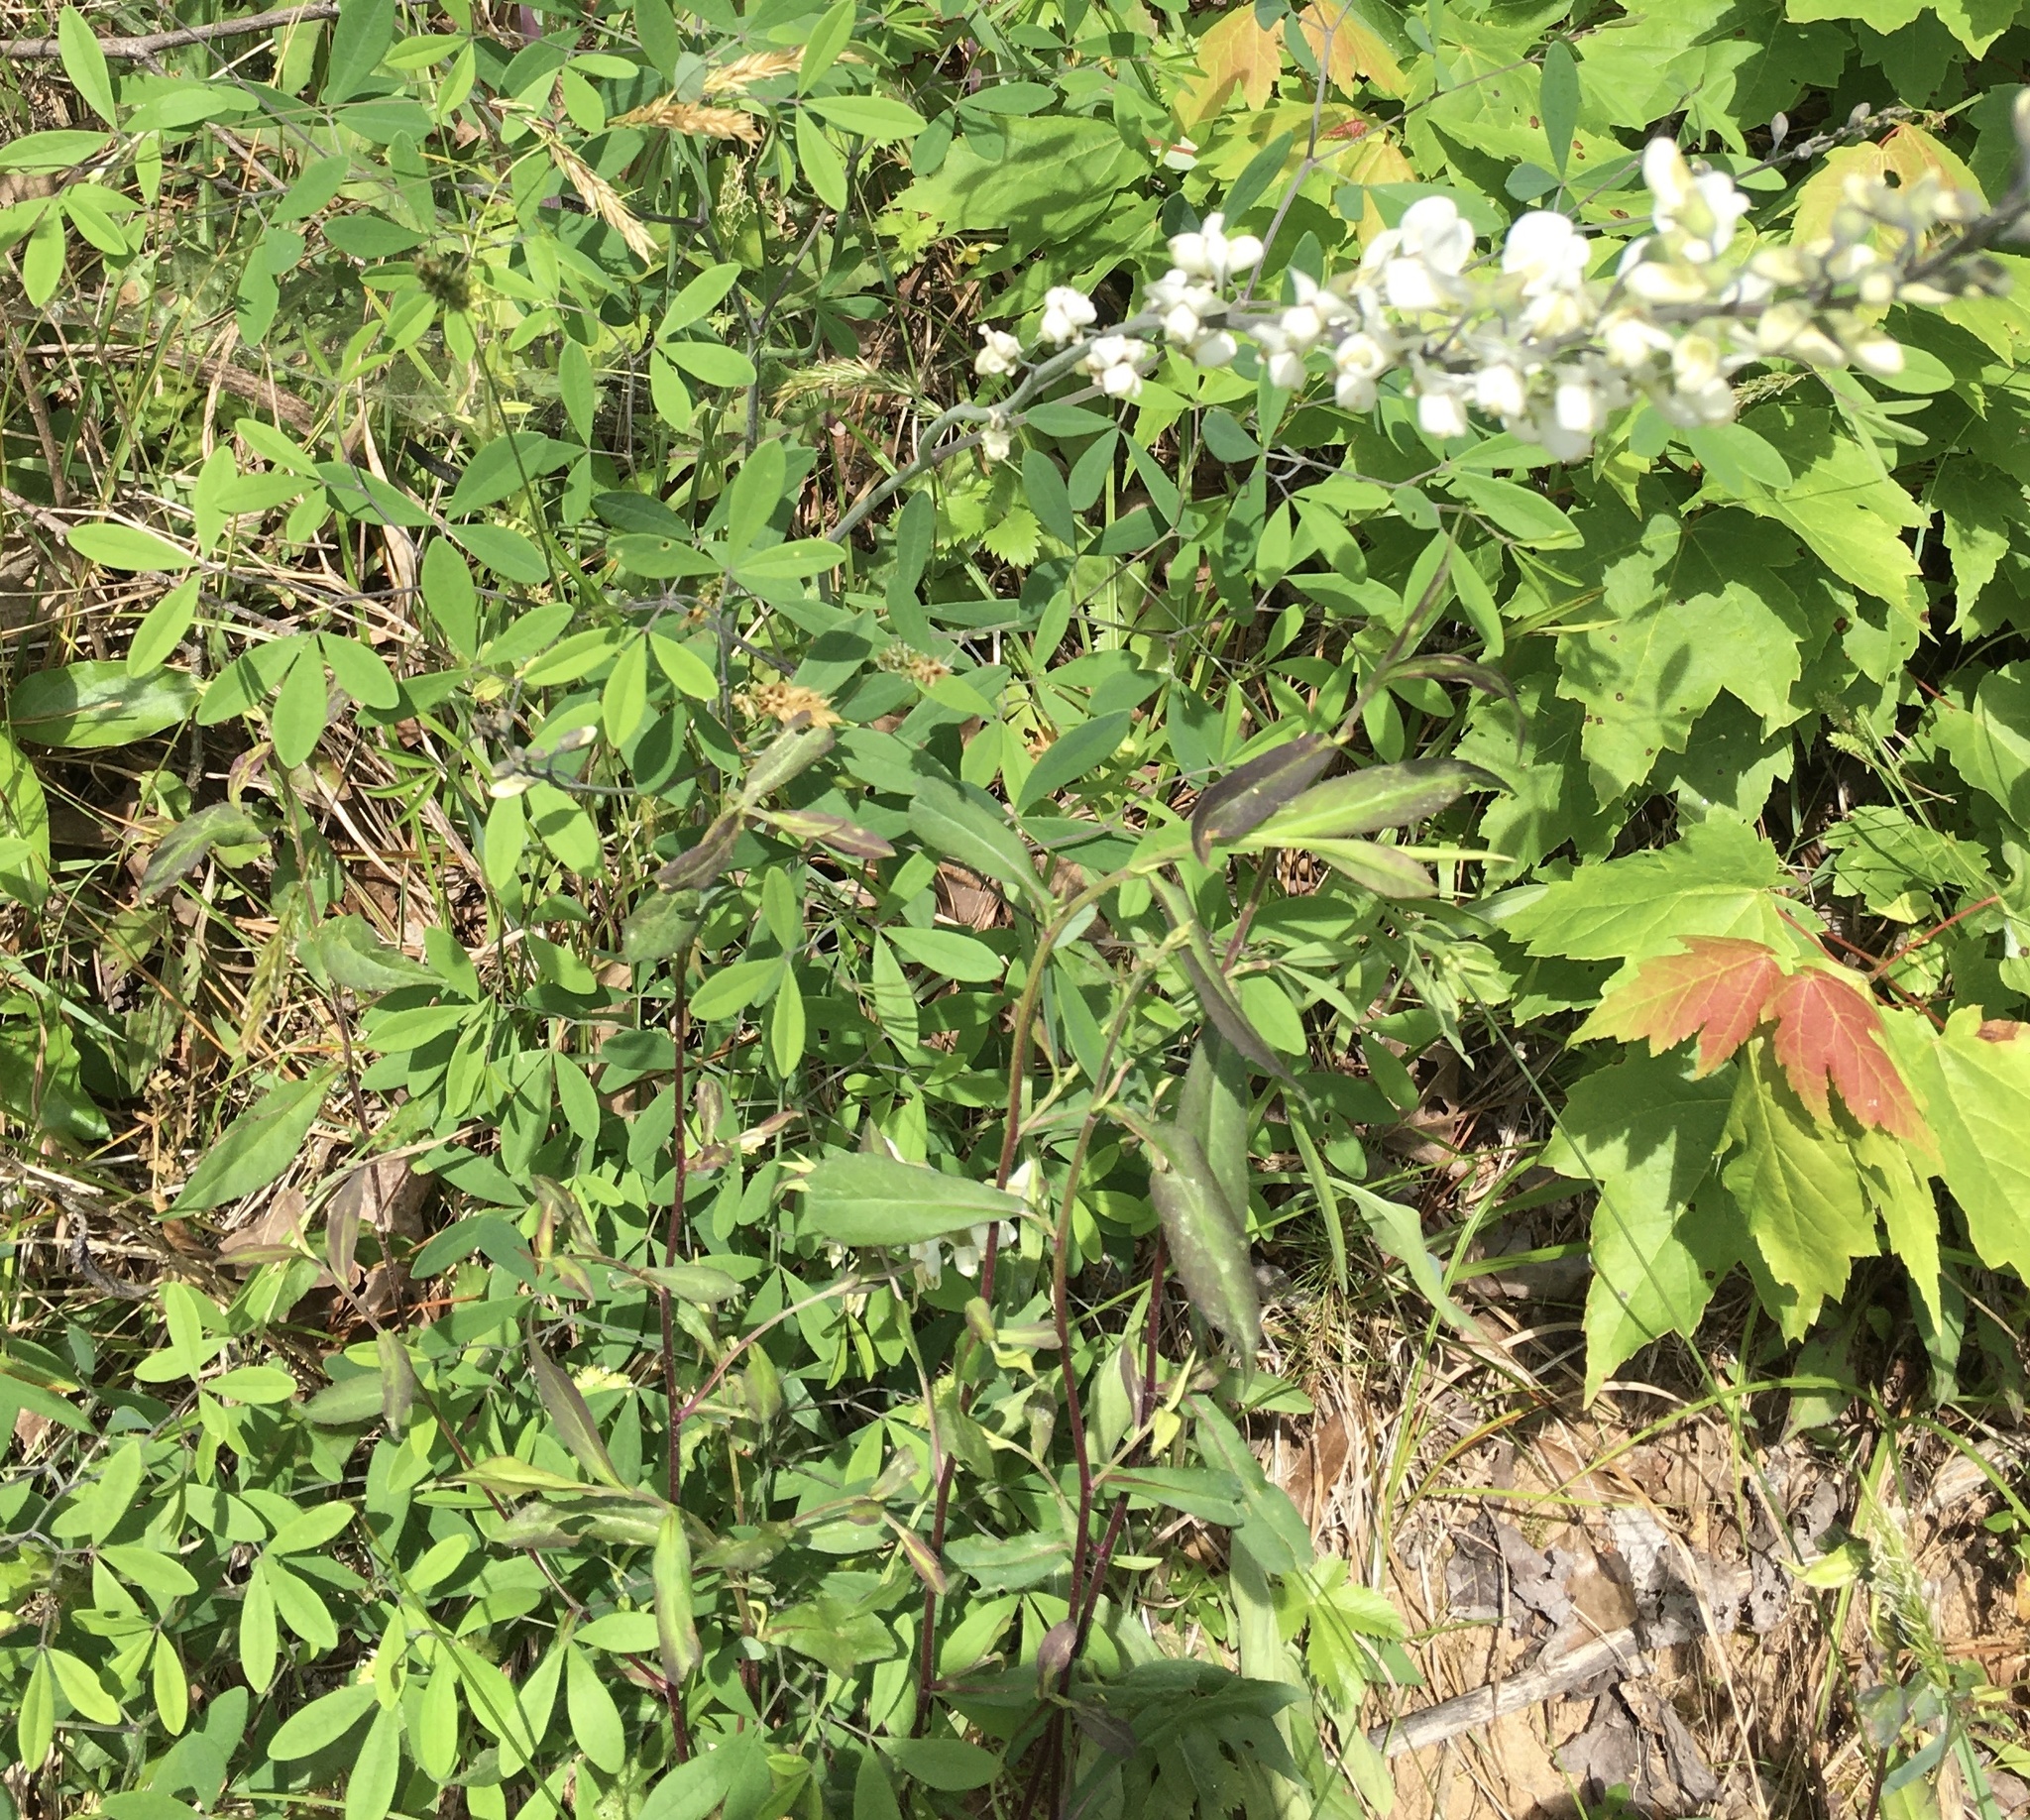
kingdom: Plantae
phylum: Tracheophyta
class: Magnoliopsida
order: Fabales
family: Fabaceae
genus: Baptisia
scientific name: Baptisia albescens
